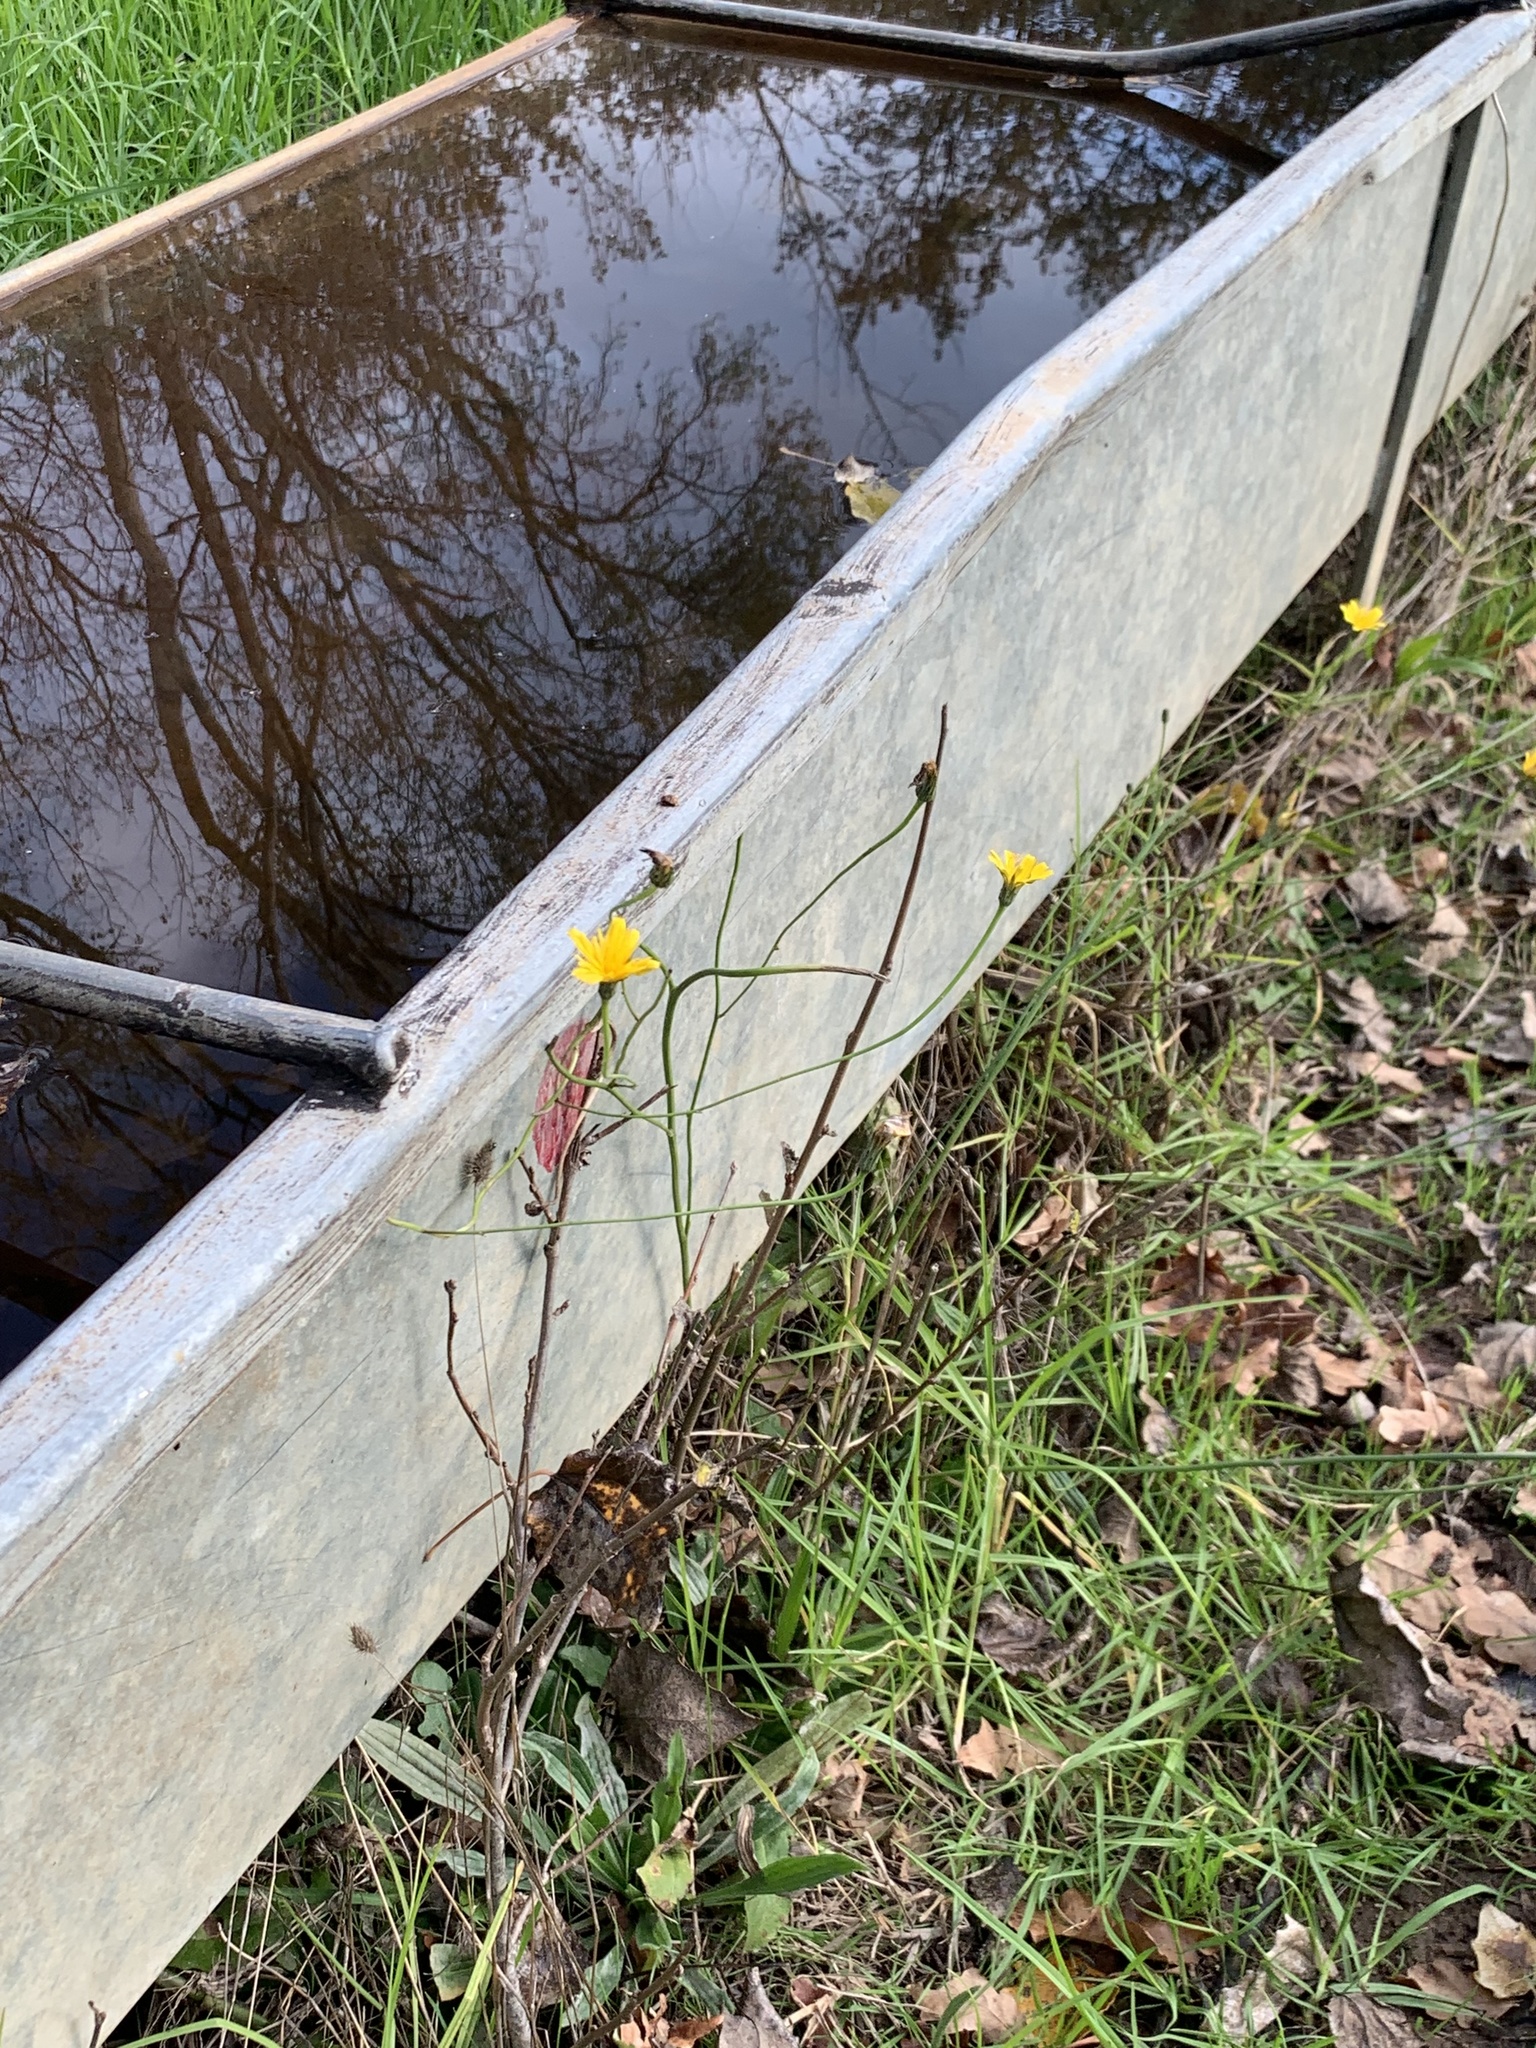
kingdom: Plantae
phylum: Tracheophyta
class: Magnoliopsida
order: Asterales
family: Asteraceae
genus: Hypochaeris
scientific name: Hypochaeris radicata
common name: Flatweed
